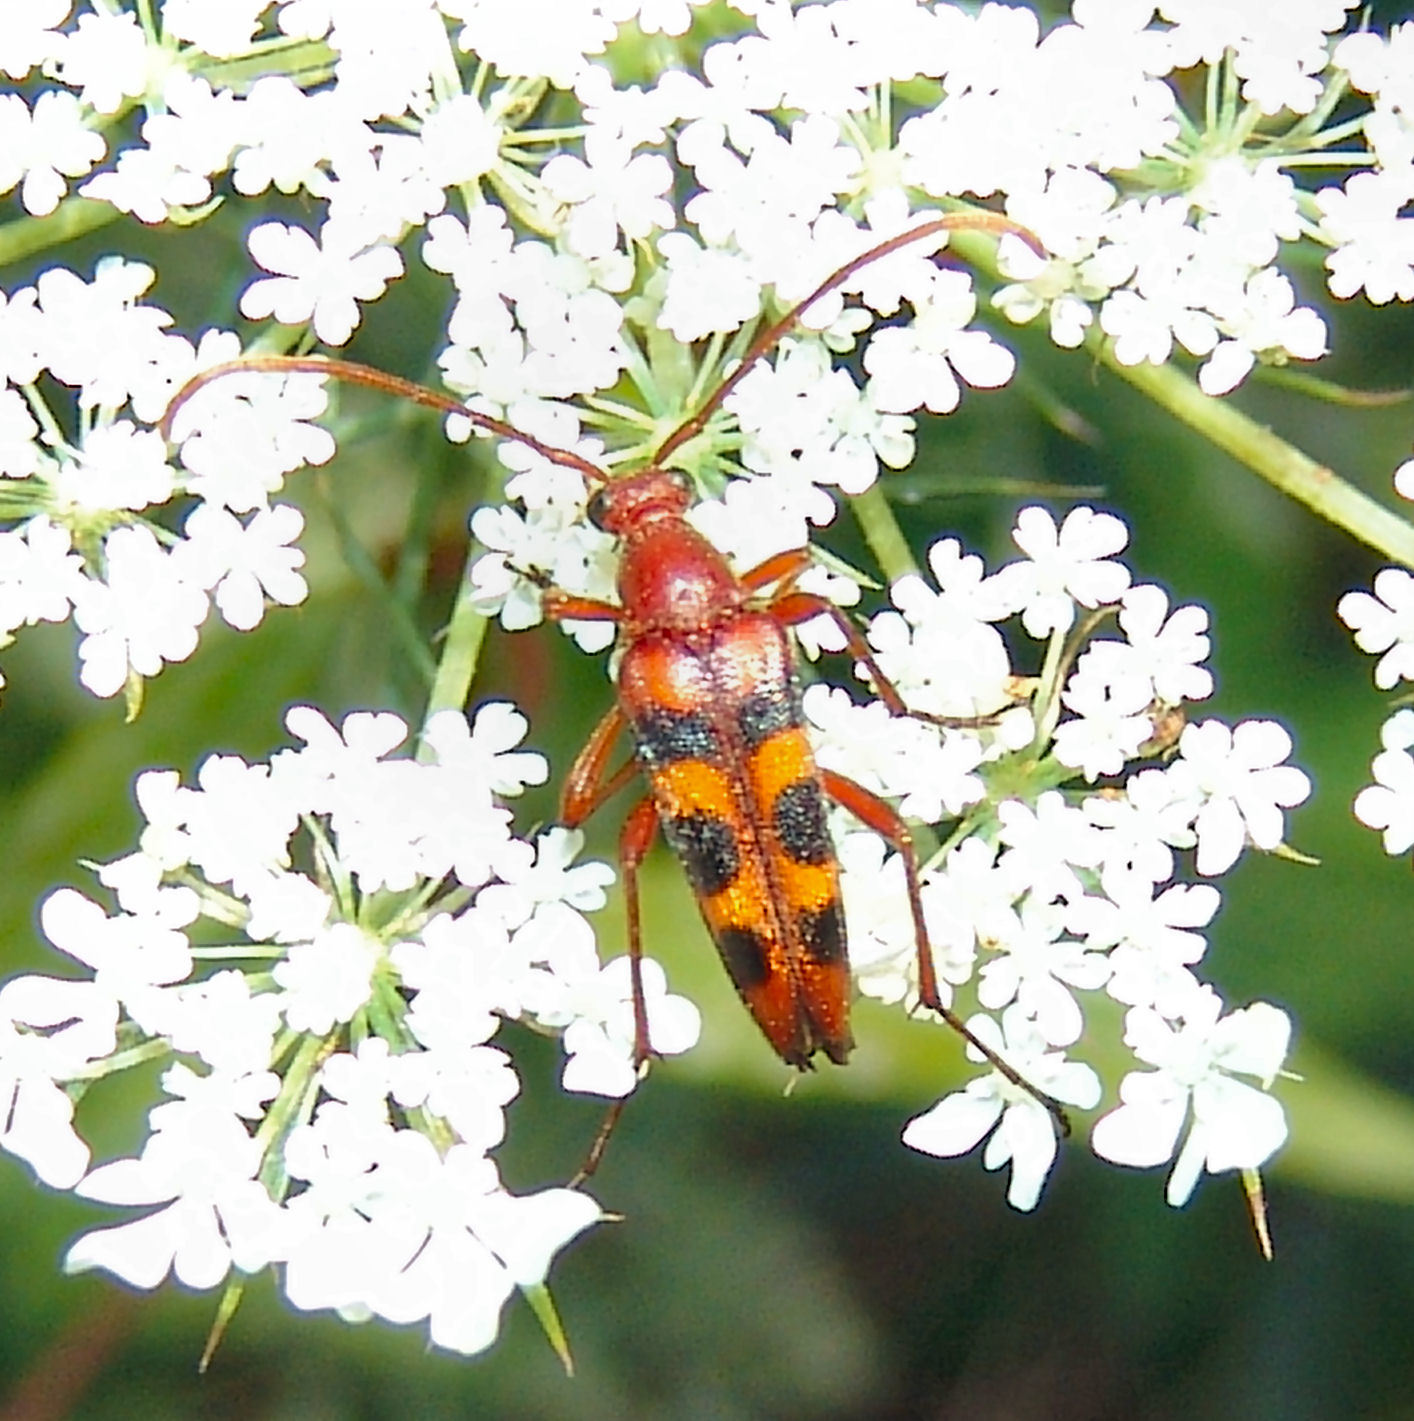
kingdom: Animalia
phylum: Arthropoda
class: Insecta
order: Coleoptera
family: Cerambycidae
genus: Strangalia
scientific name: Strangalia sexnotata
